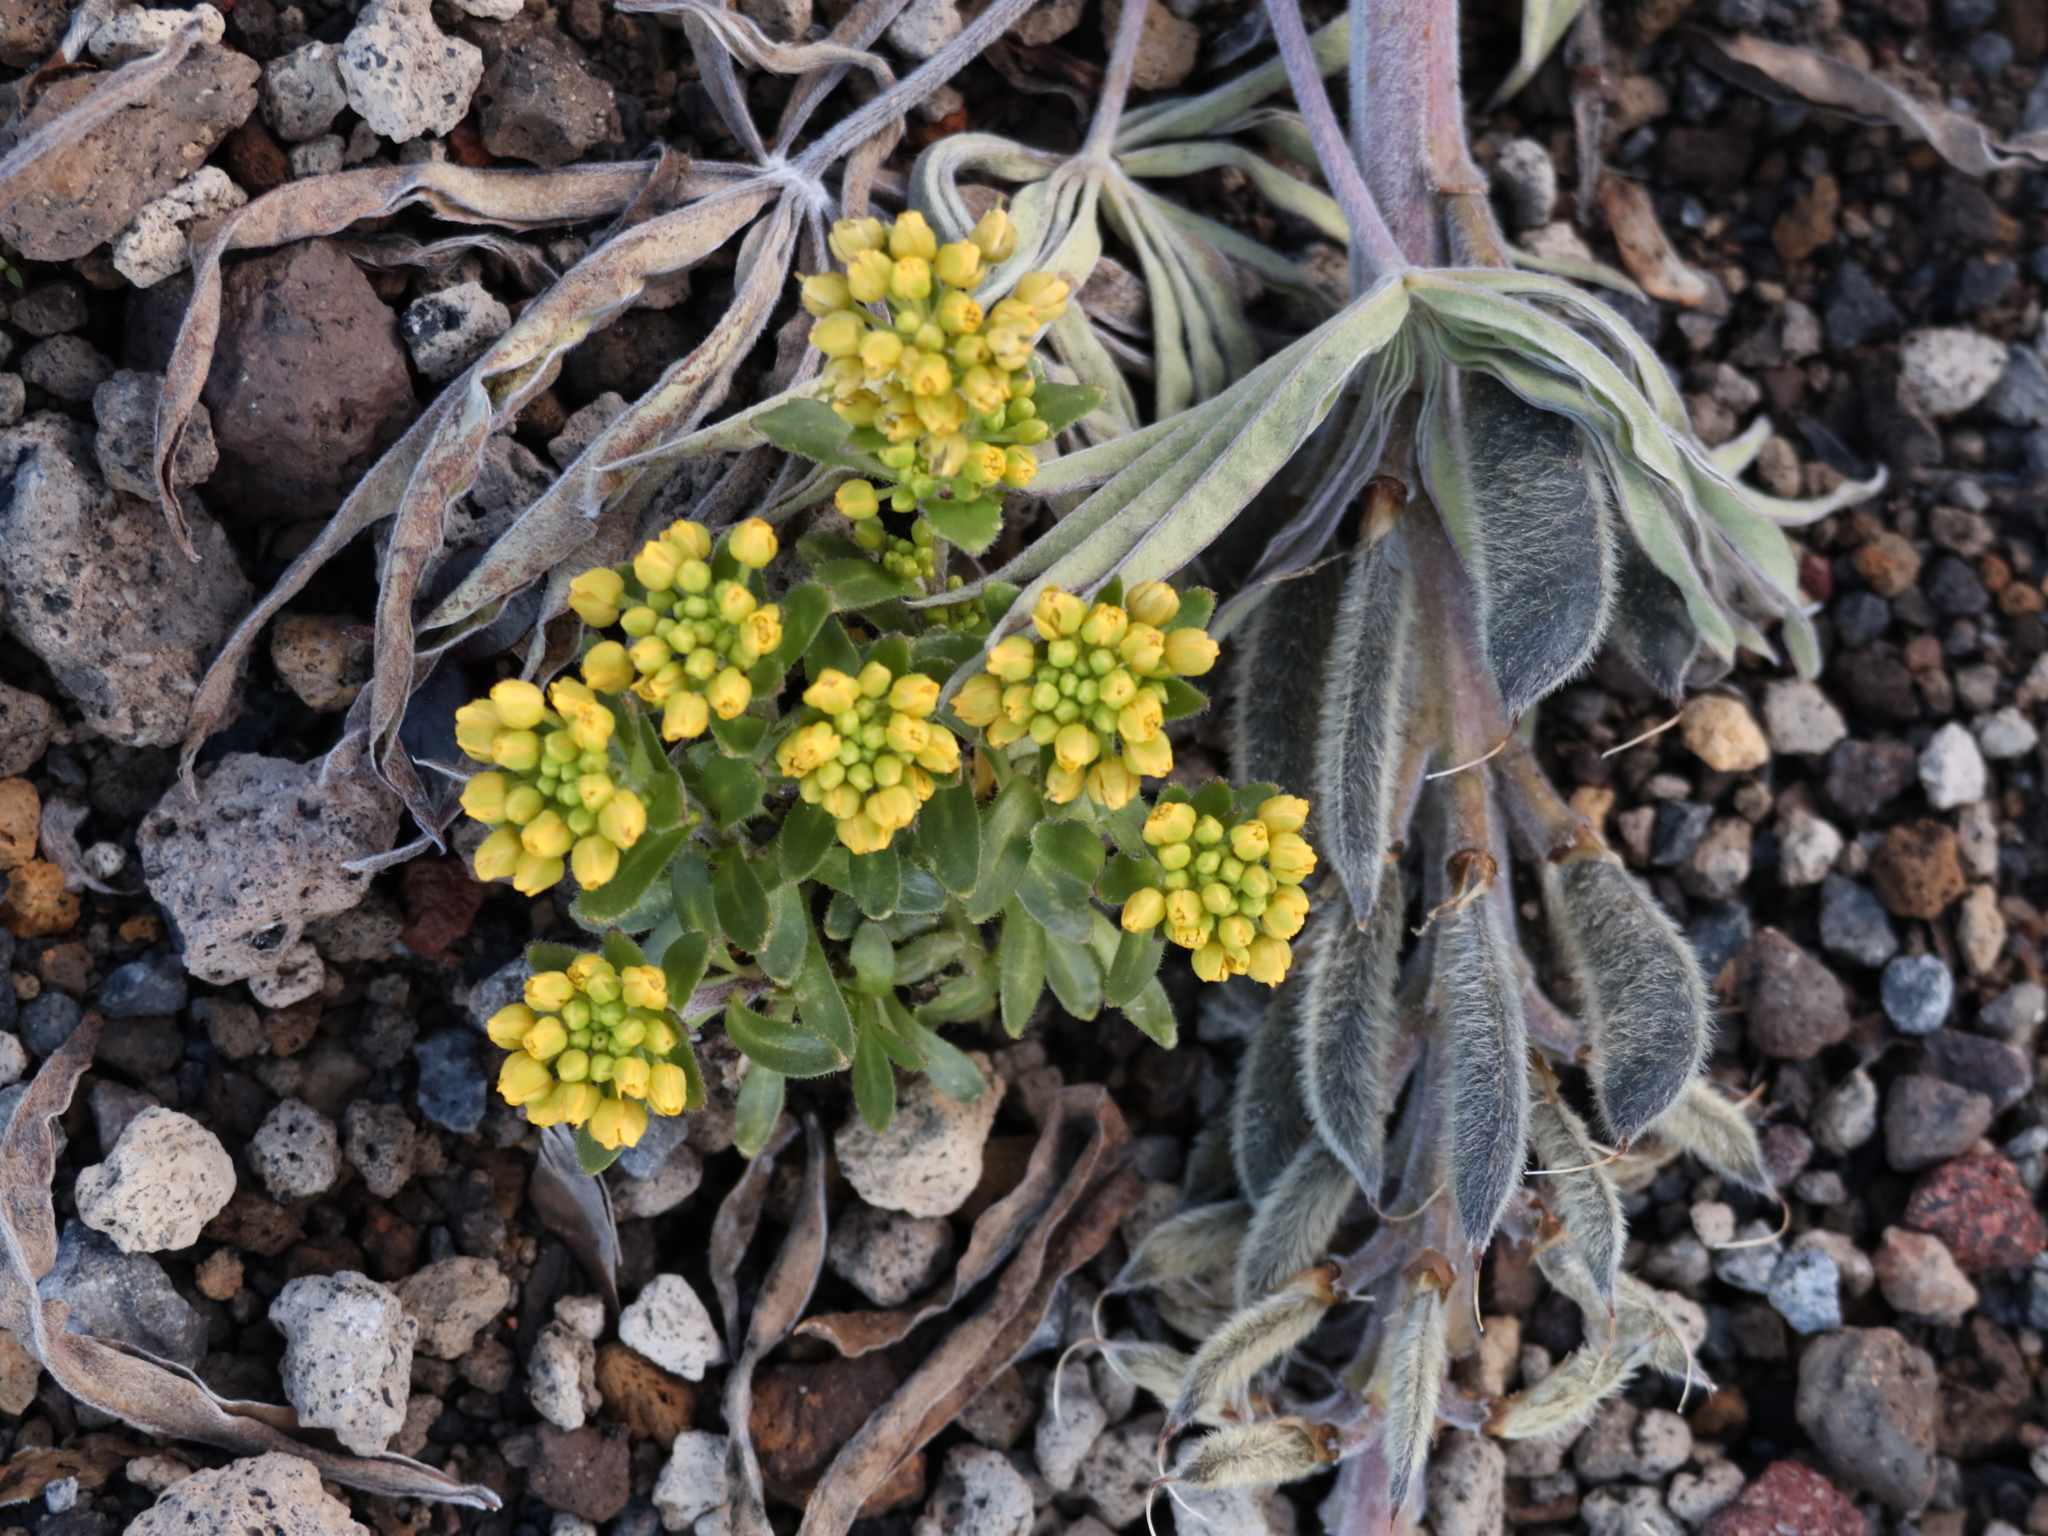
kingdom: Plantae
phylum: Tracheophyta
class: Magnoliopsida
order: Brassicales
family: Brassicaceae
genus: Draba
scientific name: Draba jorullensis
